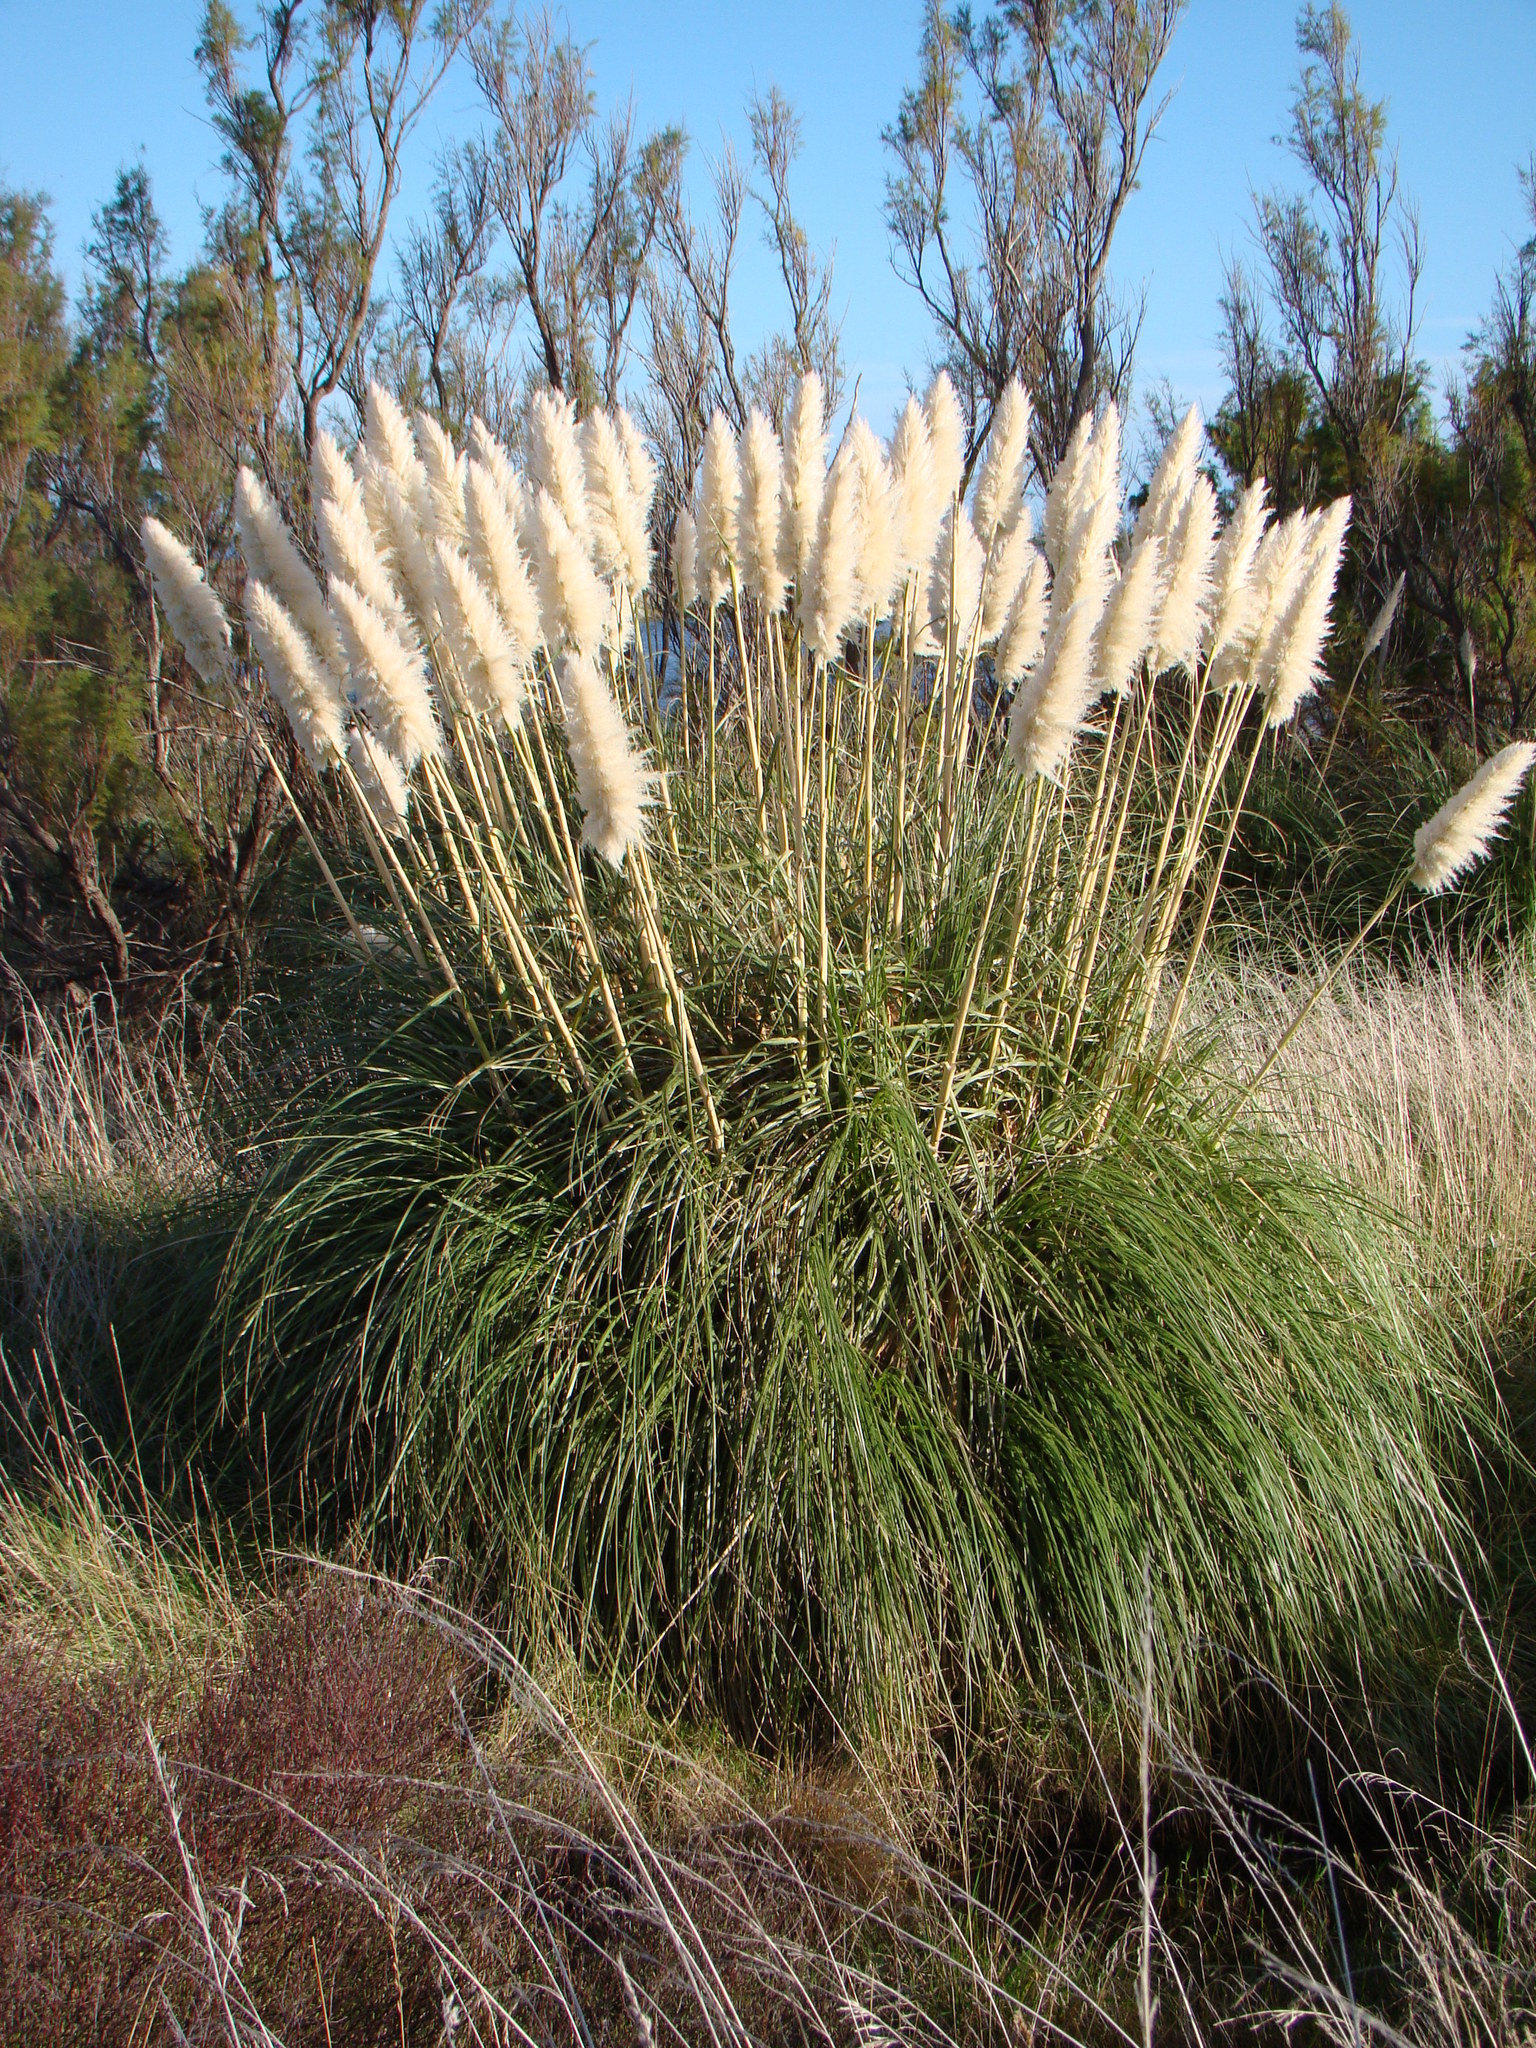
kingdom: Plantae
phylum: Tracheophyta
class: Liliopsida
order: Poales
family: Poaceae
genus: Cortaderia
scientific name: Cortaderia selloana
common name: Uruguayan pampas grass
